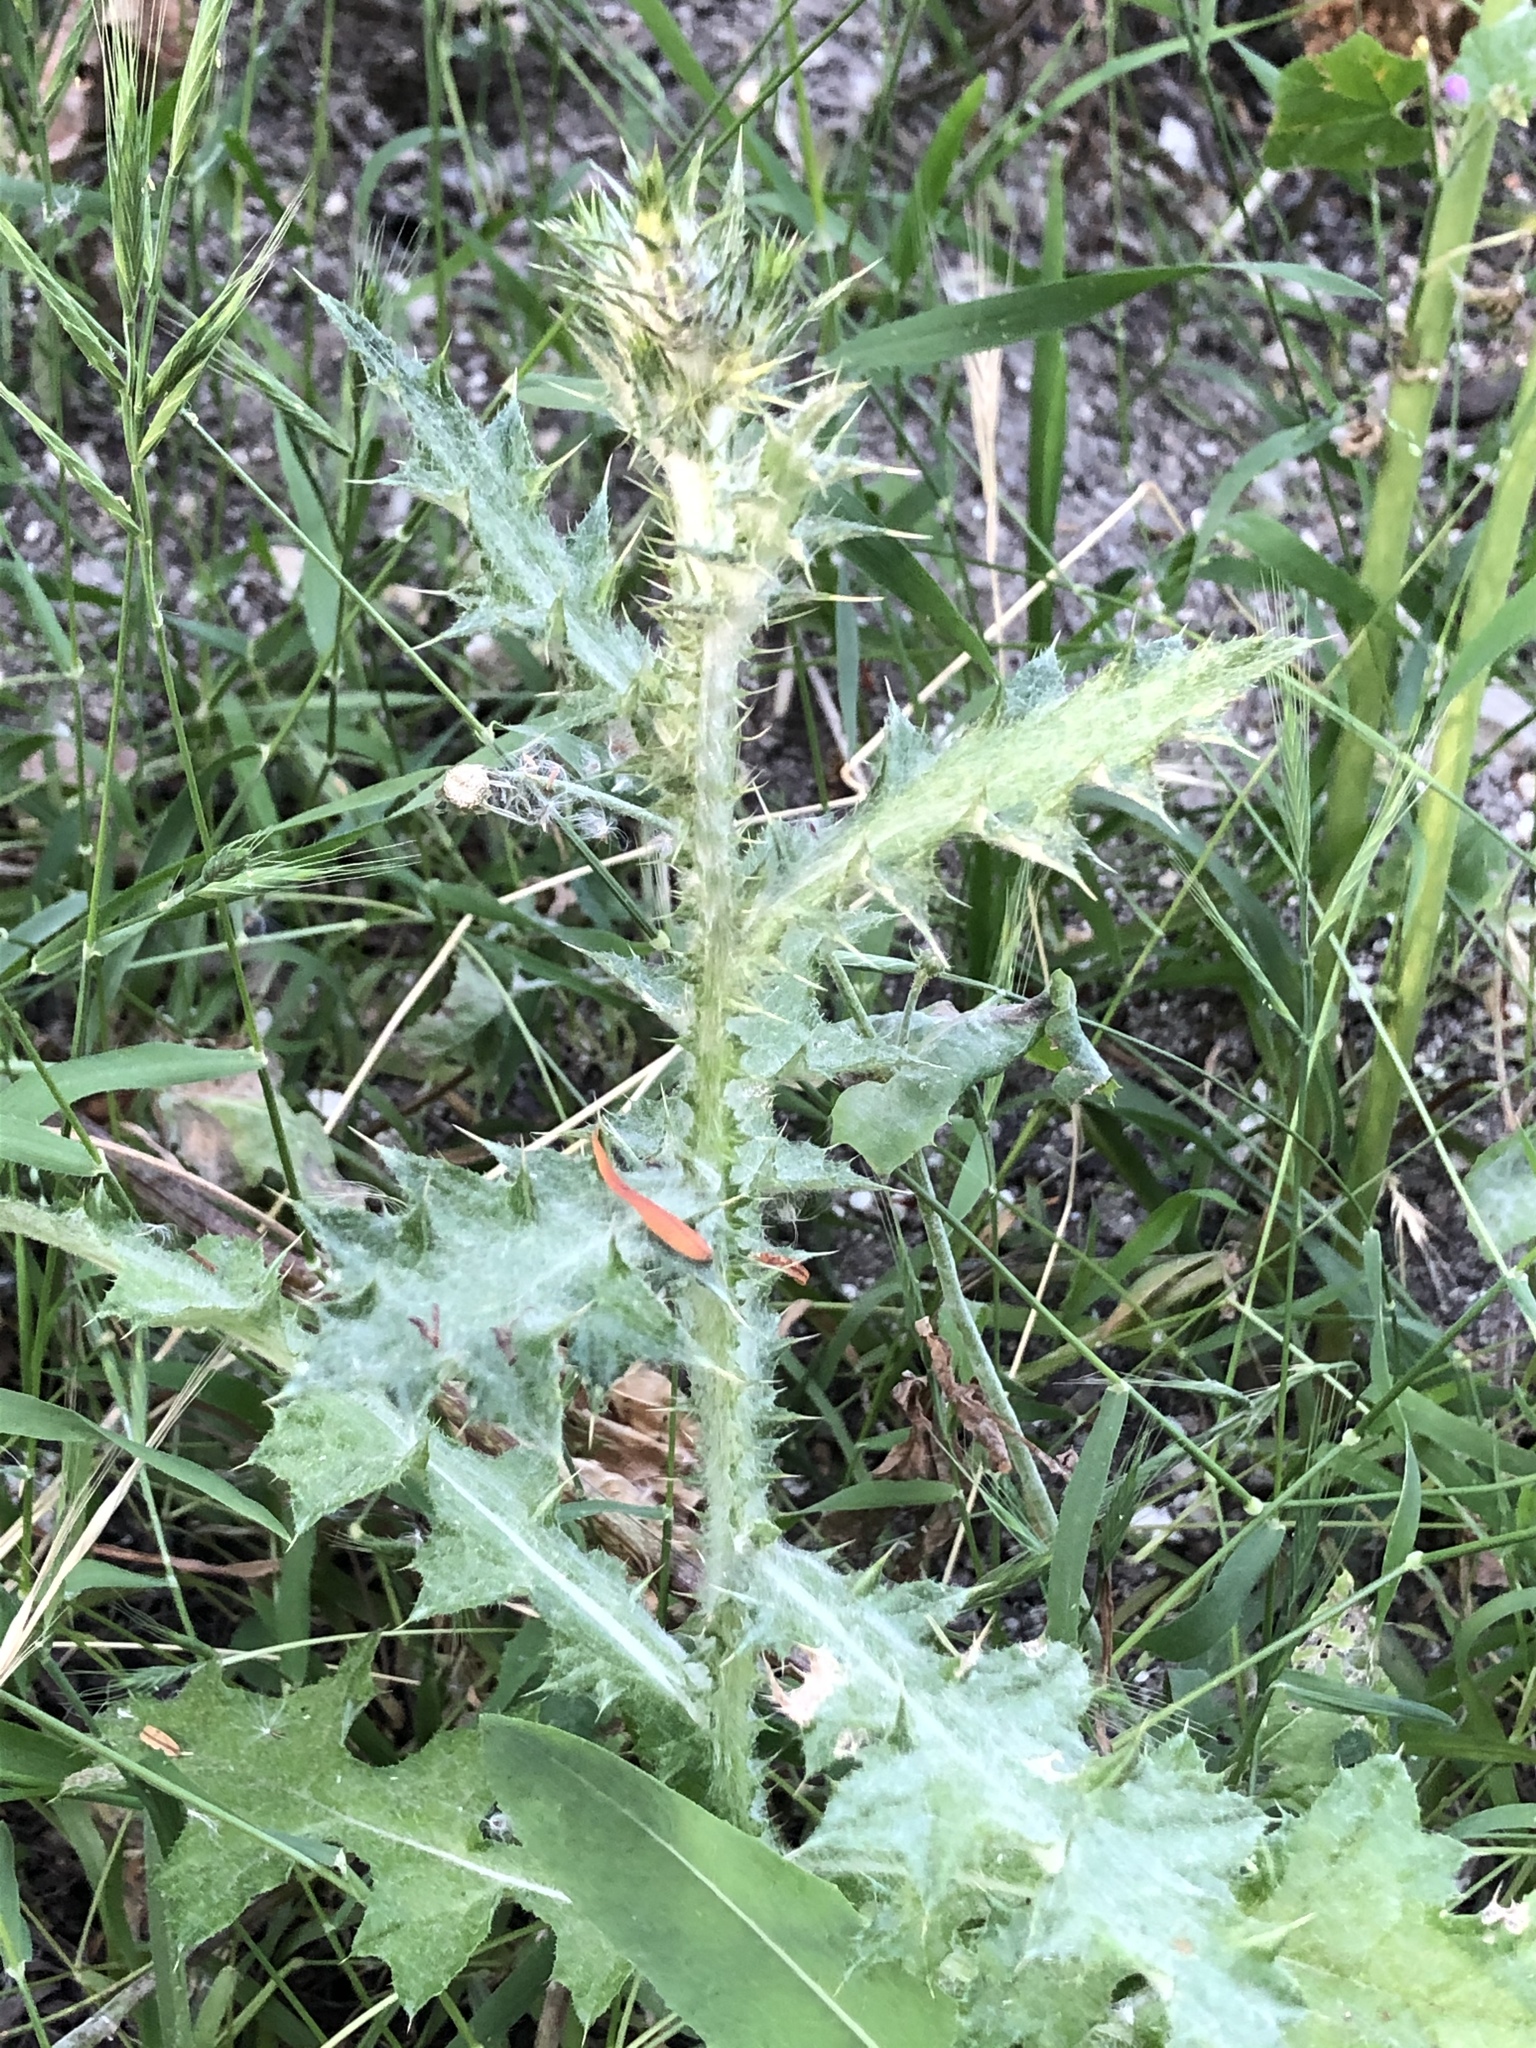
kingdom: Plantae
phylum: Tracheophyta
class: Magnoliopsida
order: Asterales
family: Asteraceae
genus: Carduus
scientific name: Carduus pycnocephalus
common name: Plymouth thistle
